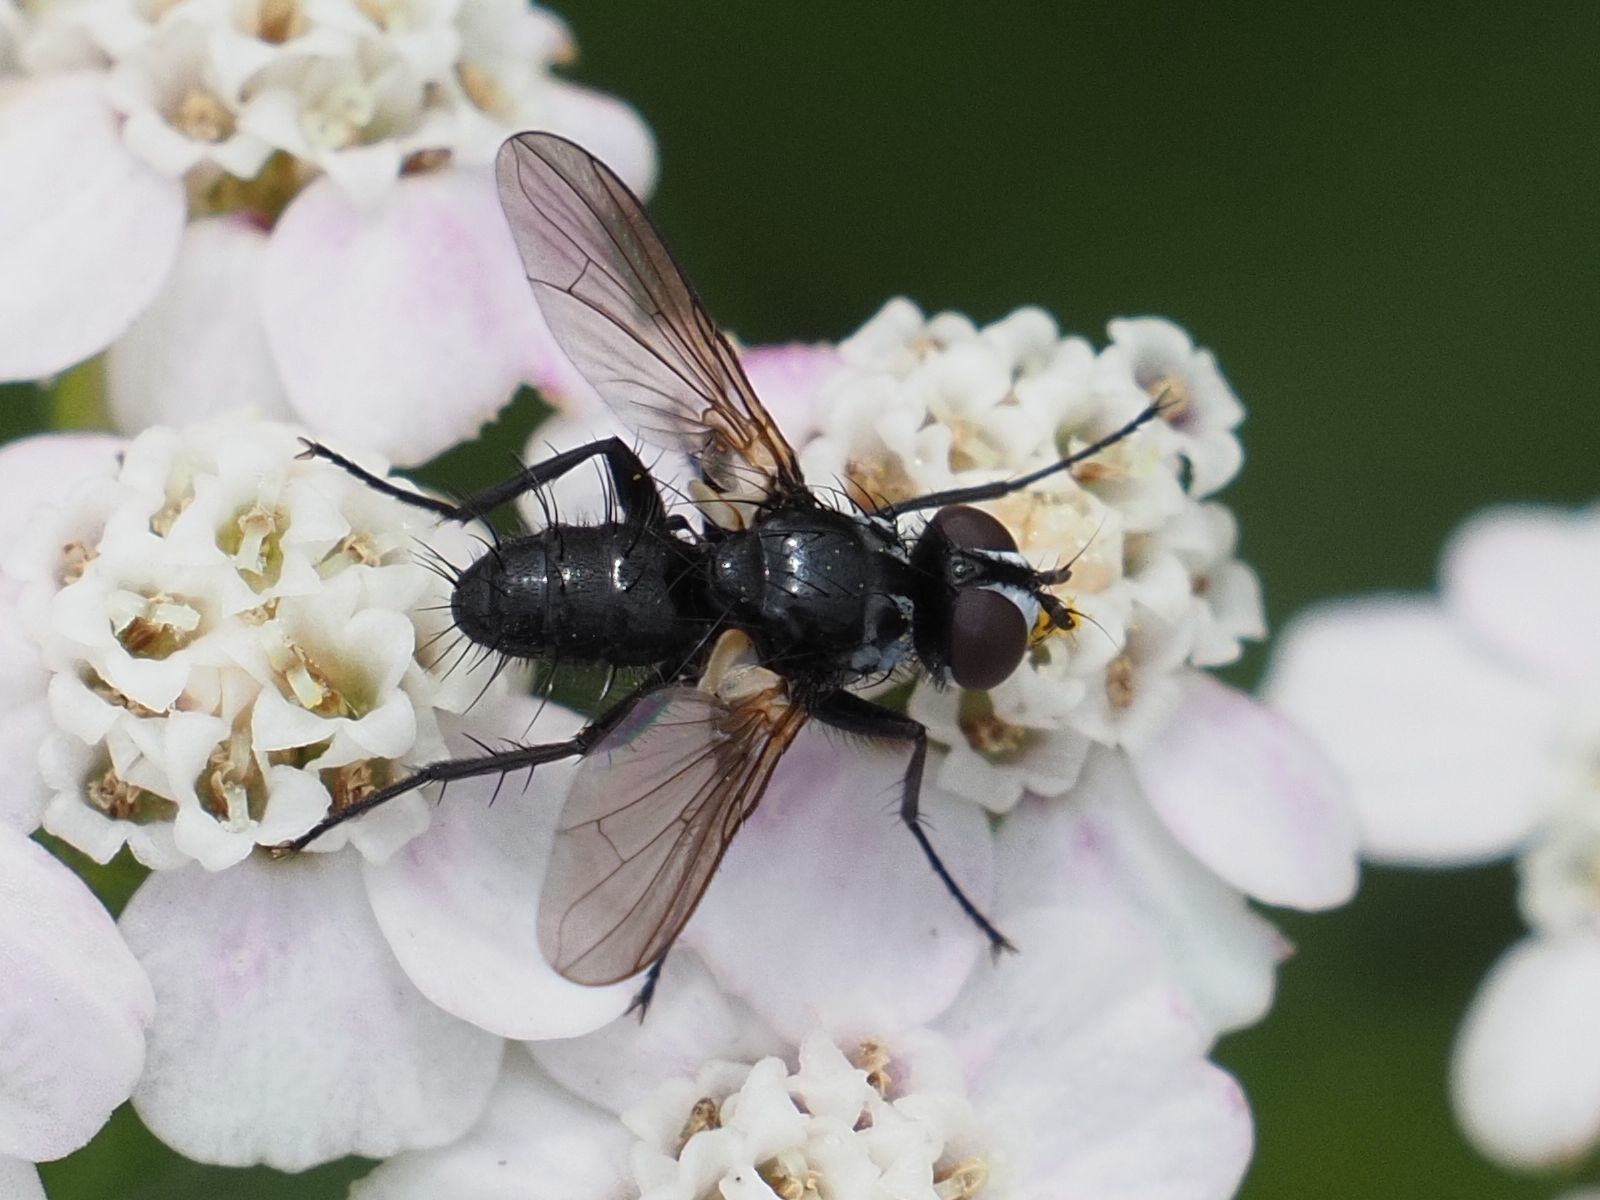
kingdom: Animalia
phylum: Arthropoda
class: Insecta
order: Diptera
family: Tachinidae
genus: Phania
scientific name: Phania funesta
